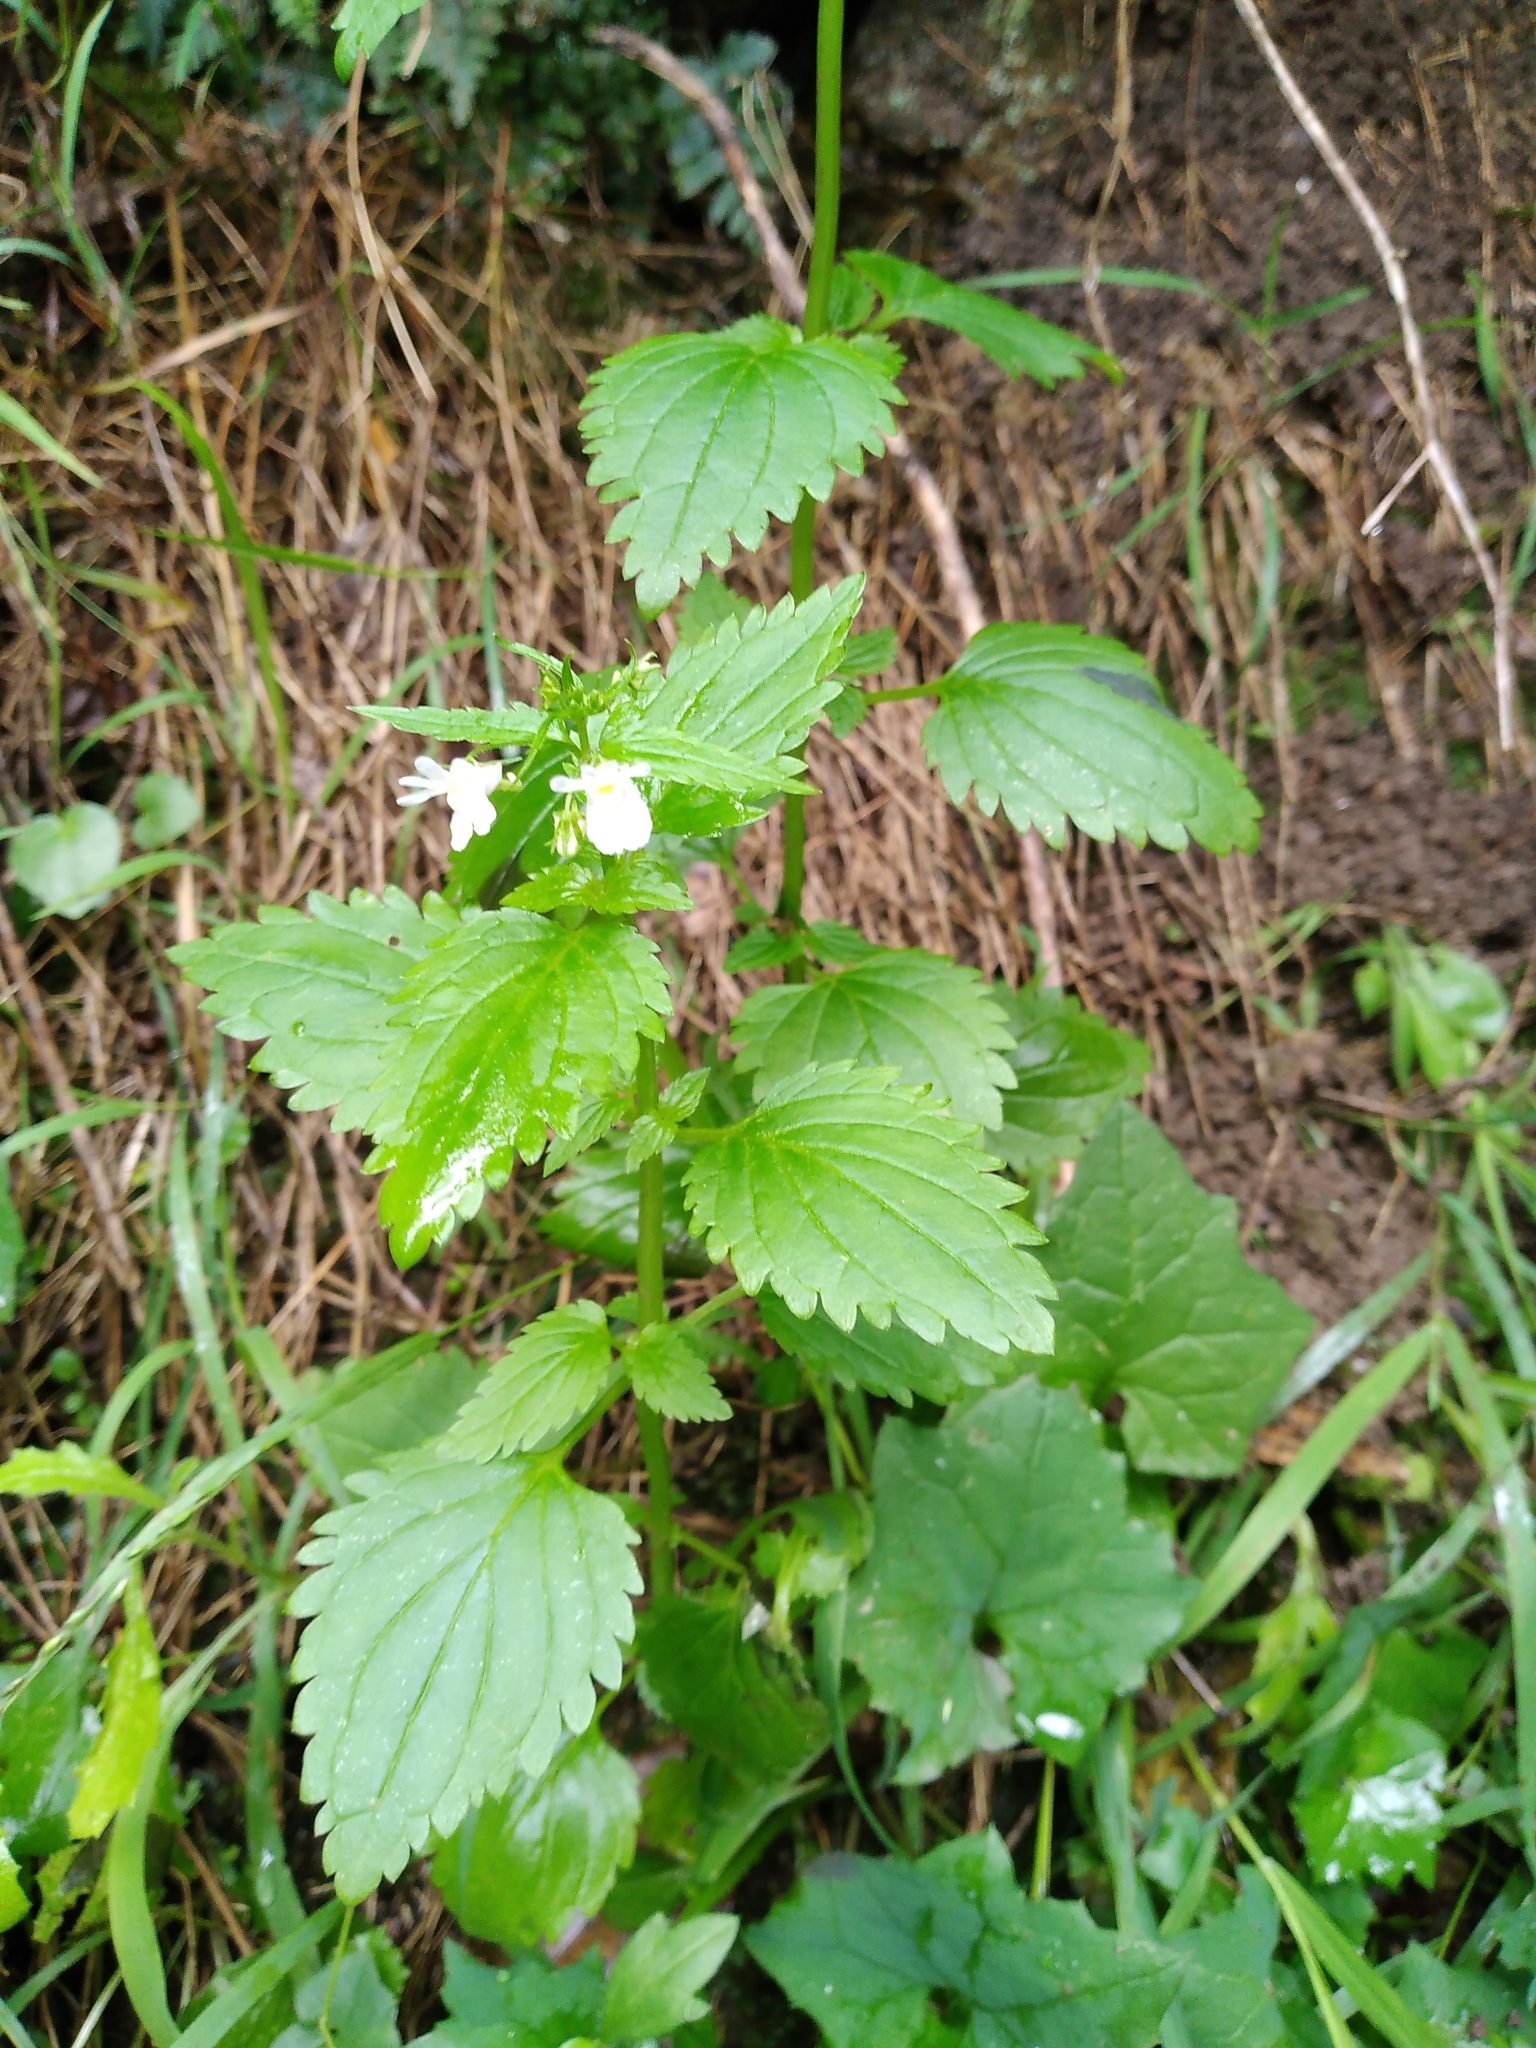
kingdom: Plantae
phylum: Tracheophyta
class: Magnoliopsida
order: Lamiales
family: Scrophulariaceae
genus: Nemesia
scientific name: Nemesia floribunda
